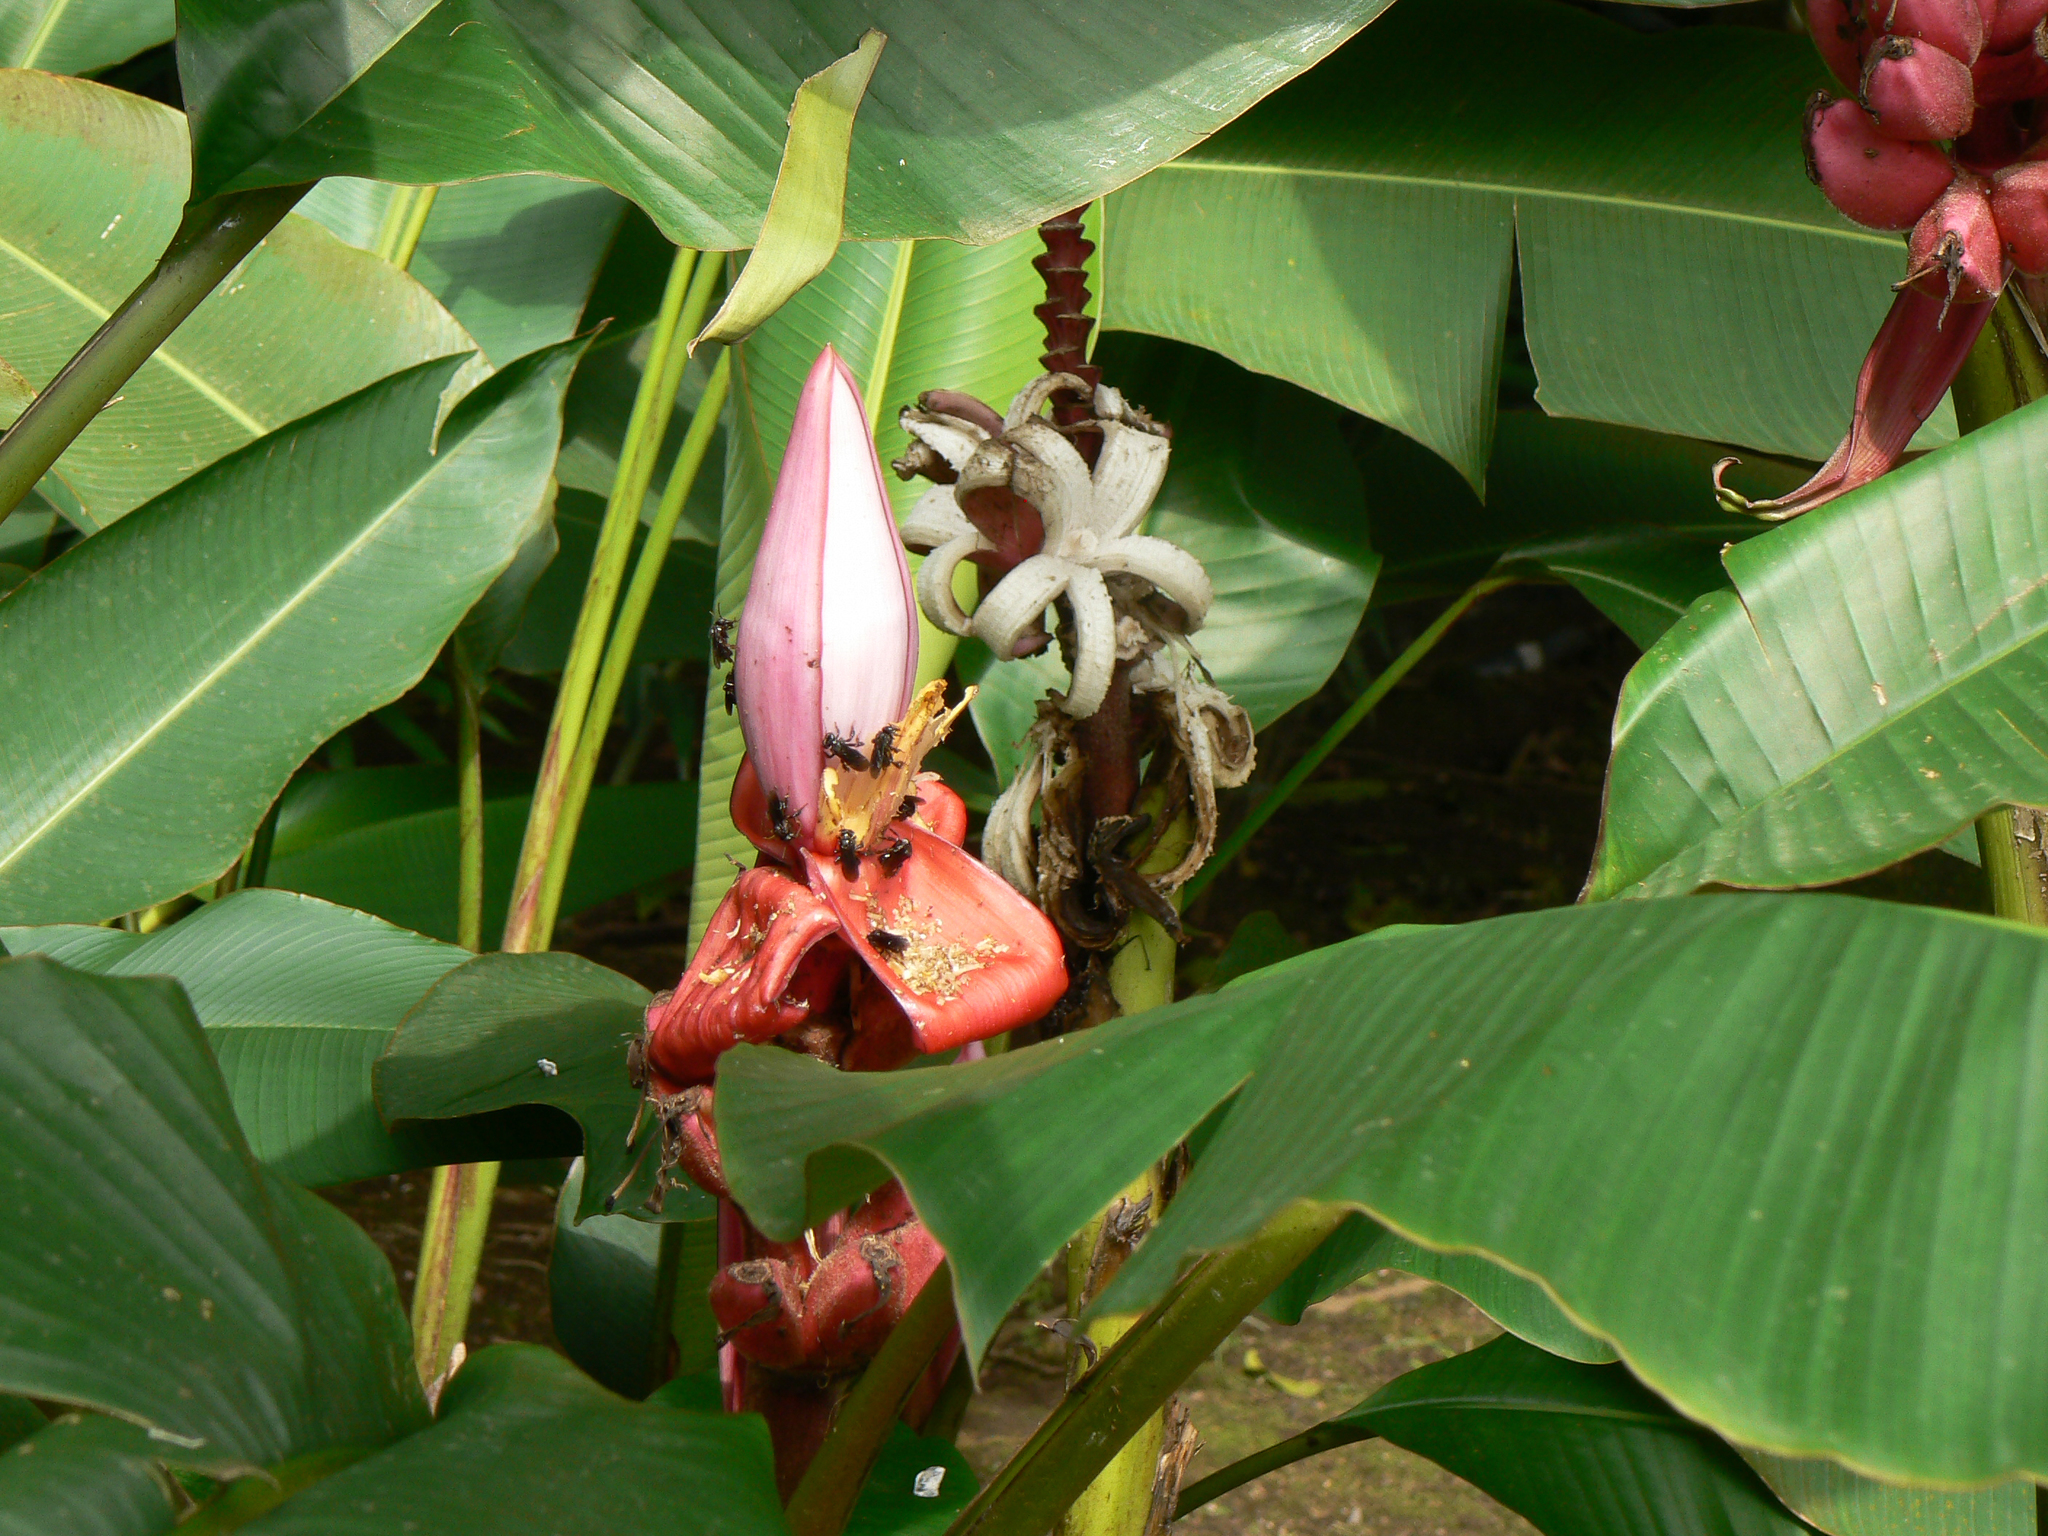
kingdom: Plantae
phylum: Tracheophyta
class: Liliopsida
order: Zingiberales
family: Musaceae
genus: Musa
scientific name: Musa velutina
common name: Pink velvet banana
